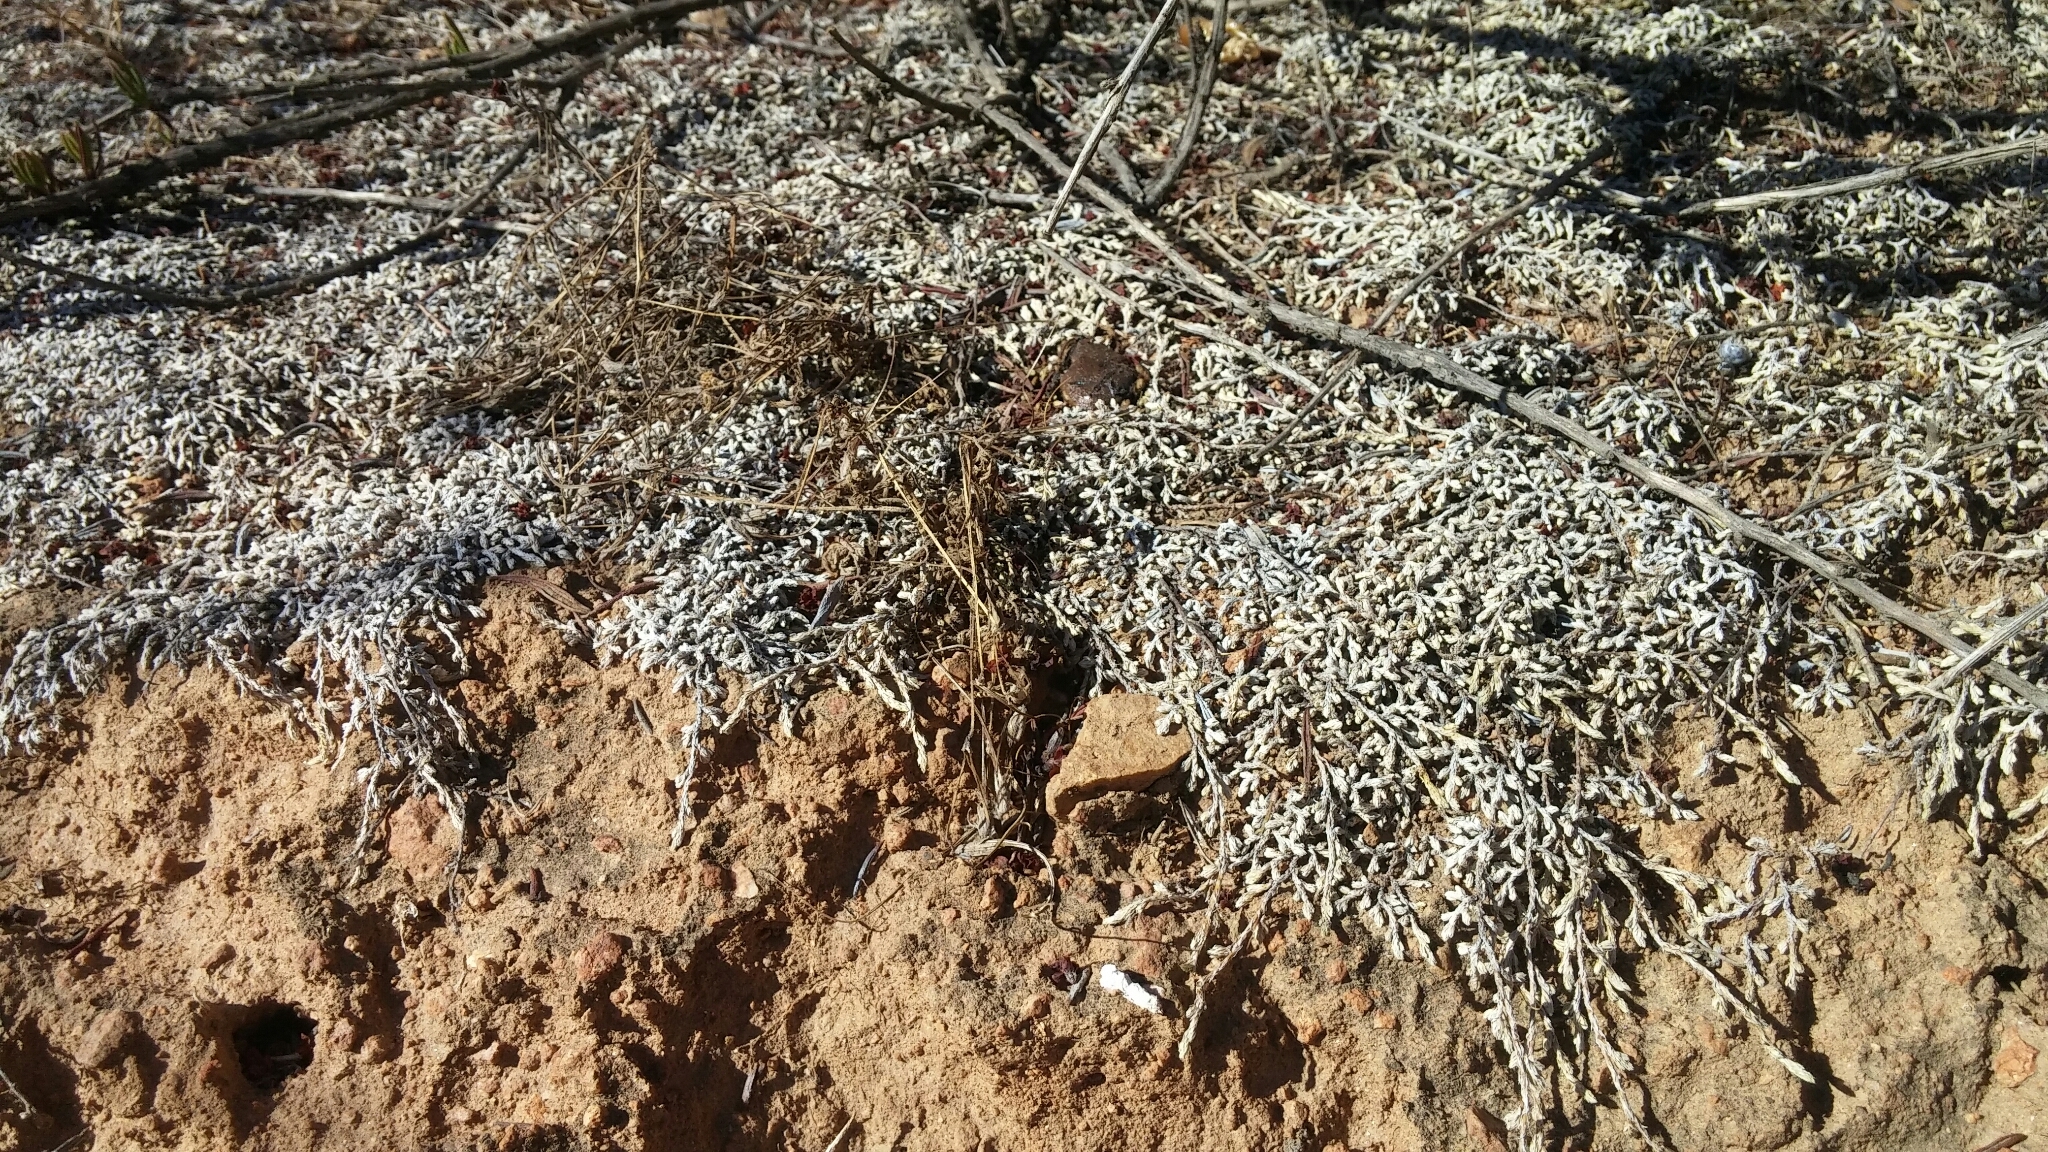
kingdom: Plantae
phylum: Tracheophyta
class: Lycopodiopsida
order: Selaginellales
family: Selaginellaceae
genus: Selaginella
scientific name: Selaginella cinerascens
